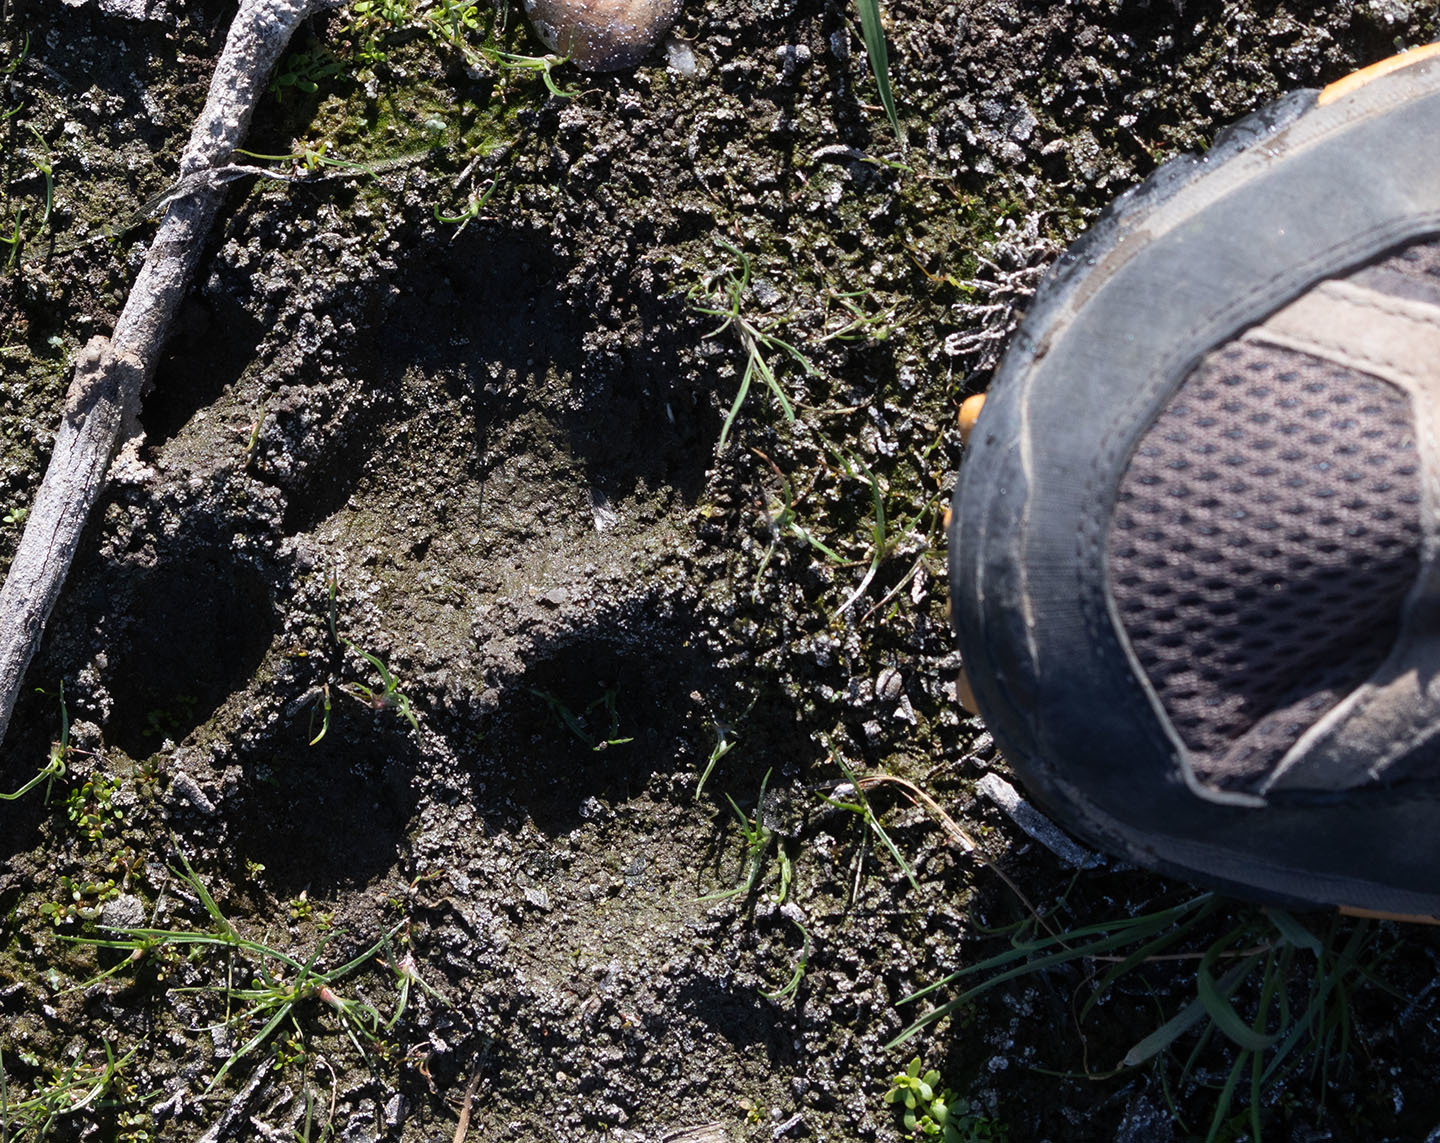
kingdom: Animalia
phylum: Chordata
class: Mammalia
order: Carnivora
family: Felidae
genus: Puma
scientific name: Puma concolor
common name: Puma
